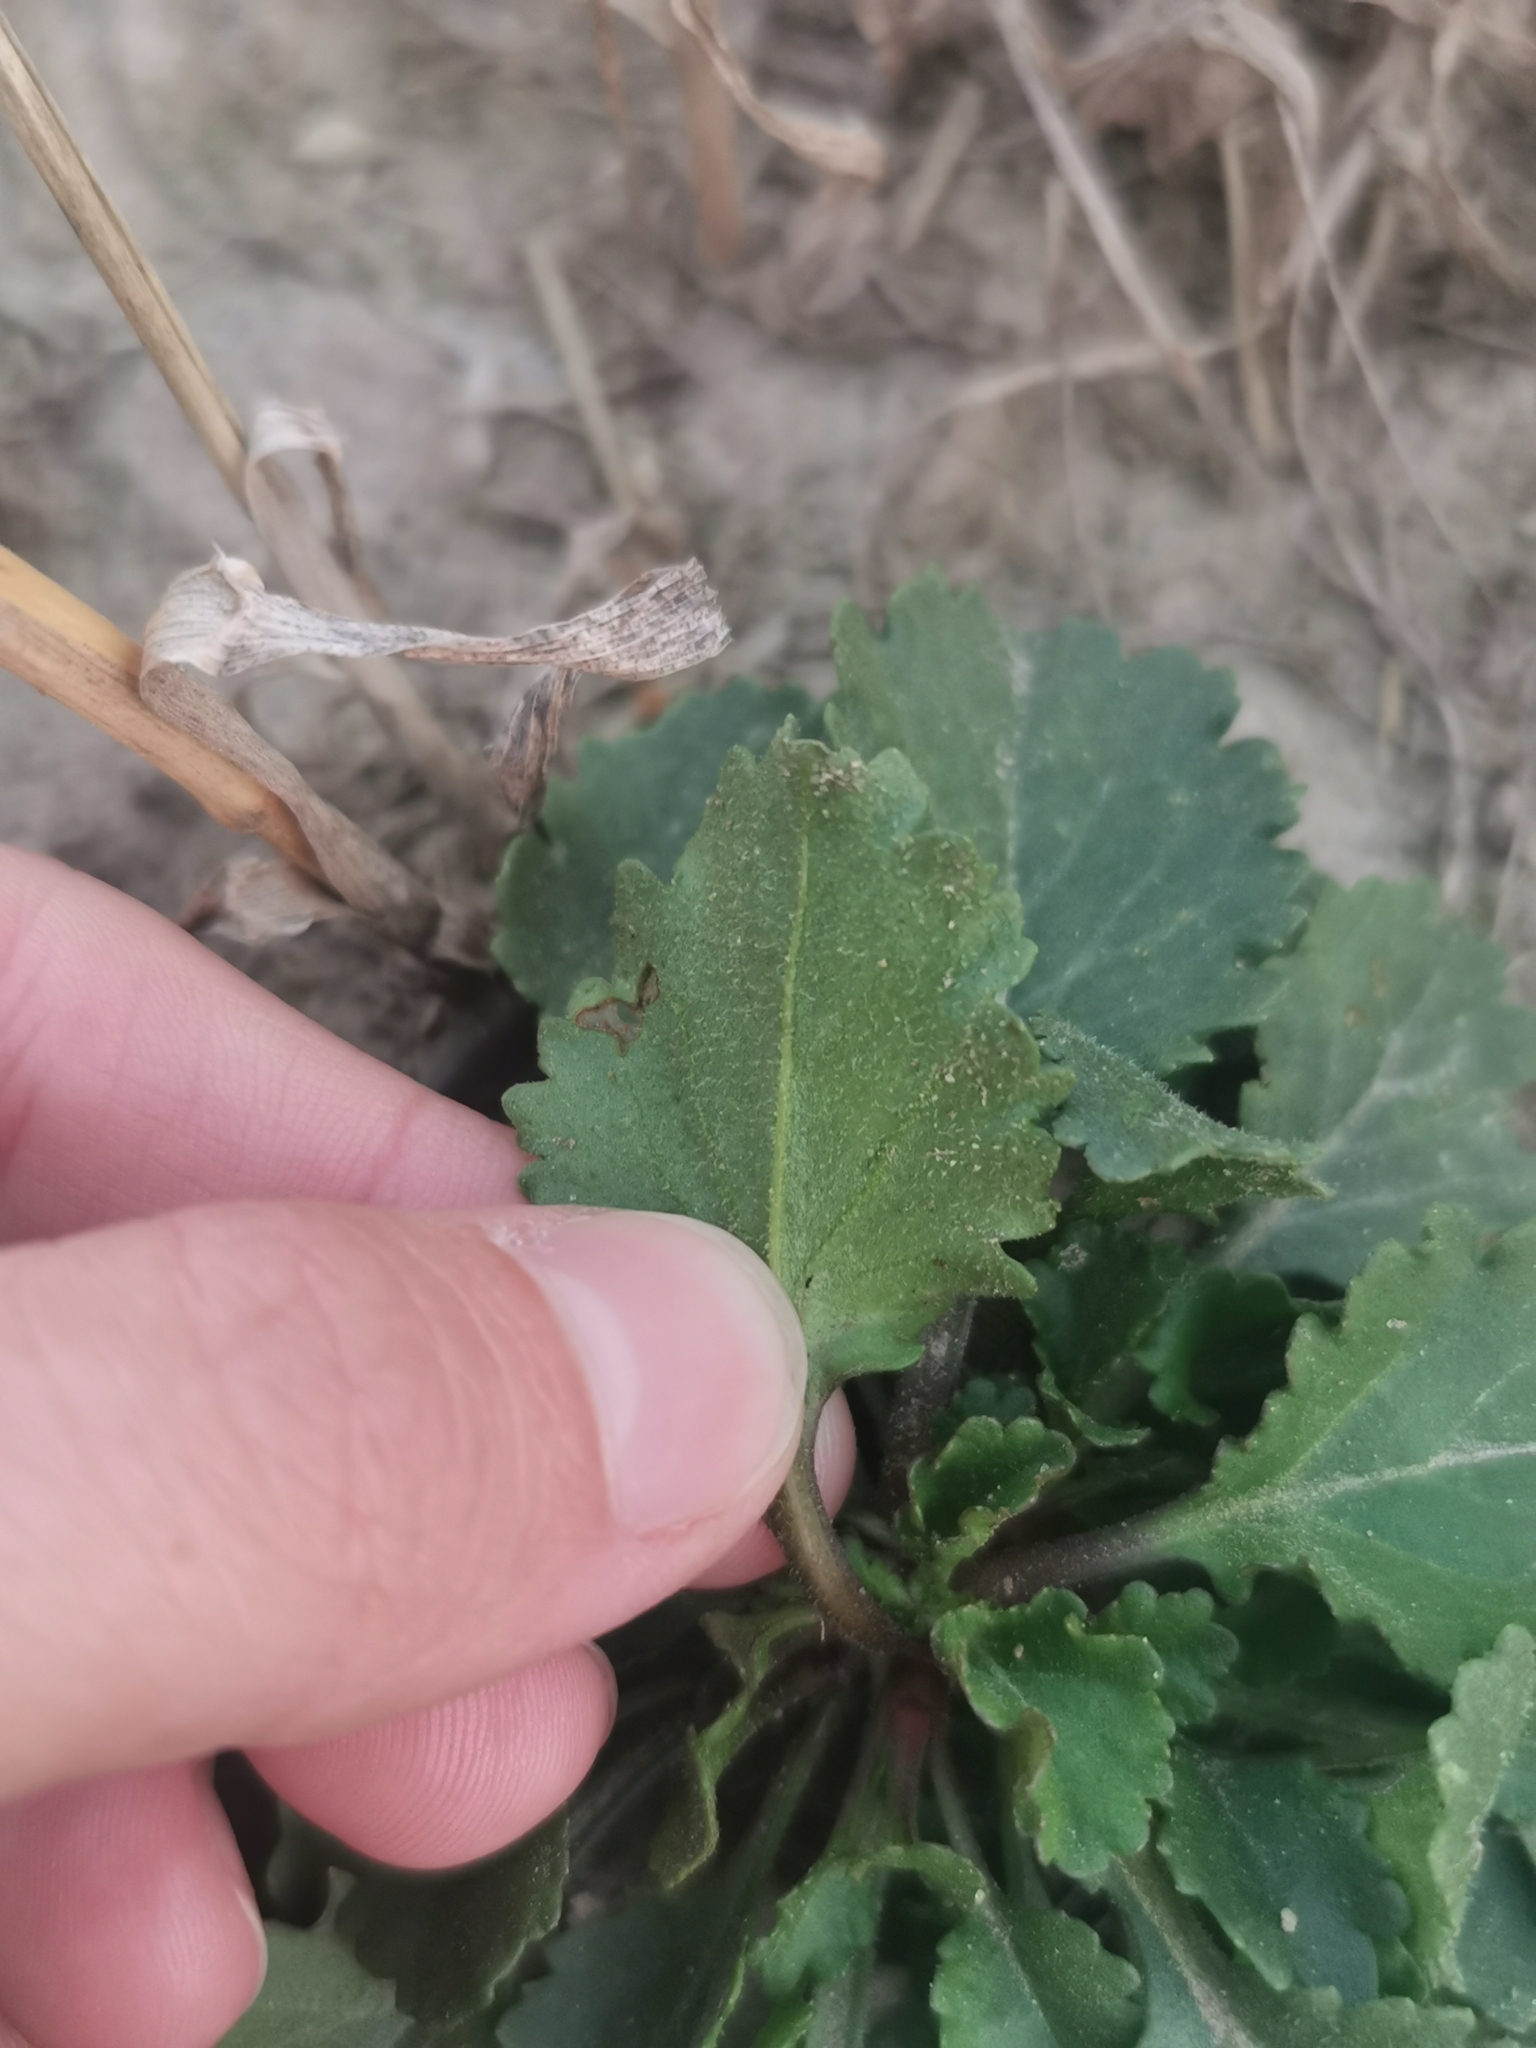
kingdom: Plantae
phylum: Tracheophyta
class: Magnoliopsida
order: Asterales
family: Asteraceae
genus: Leucanthemum
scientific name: Leucanthemum vulgare
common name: Oxeye daisy
